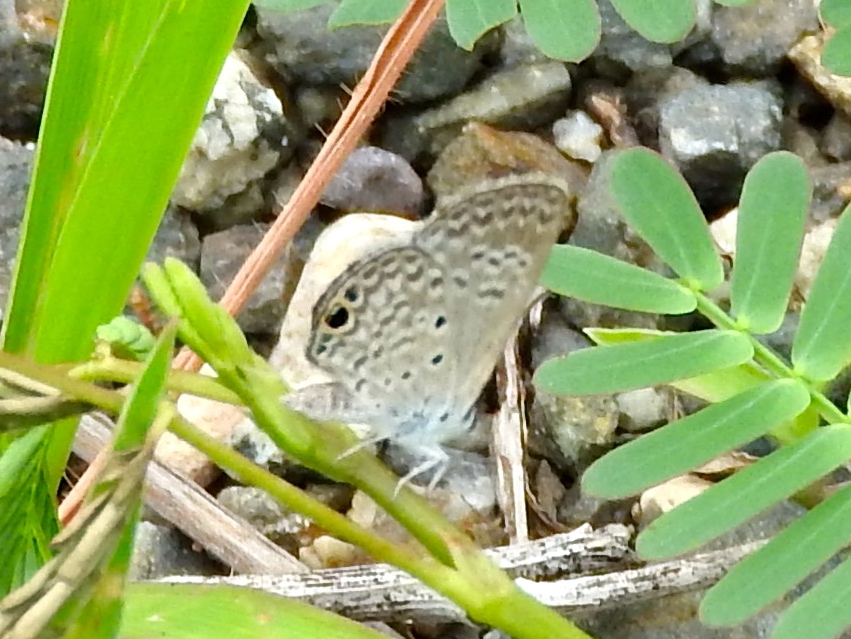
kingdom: Animalia
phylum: Arthropoda
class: Insecta
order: Lepidoptera
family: Lycaenidae
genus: Hemiargus
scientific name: Hemiargus ceraunus
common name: Ceraunus blue
